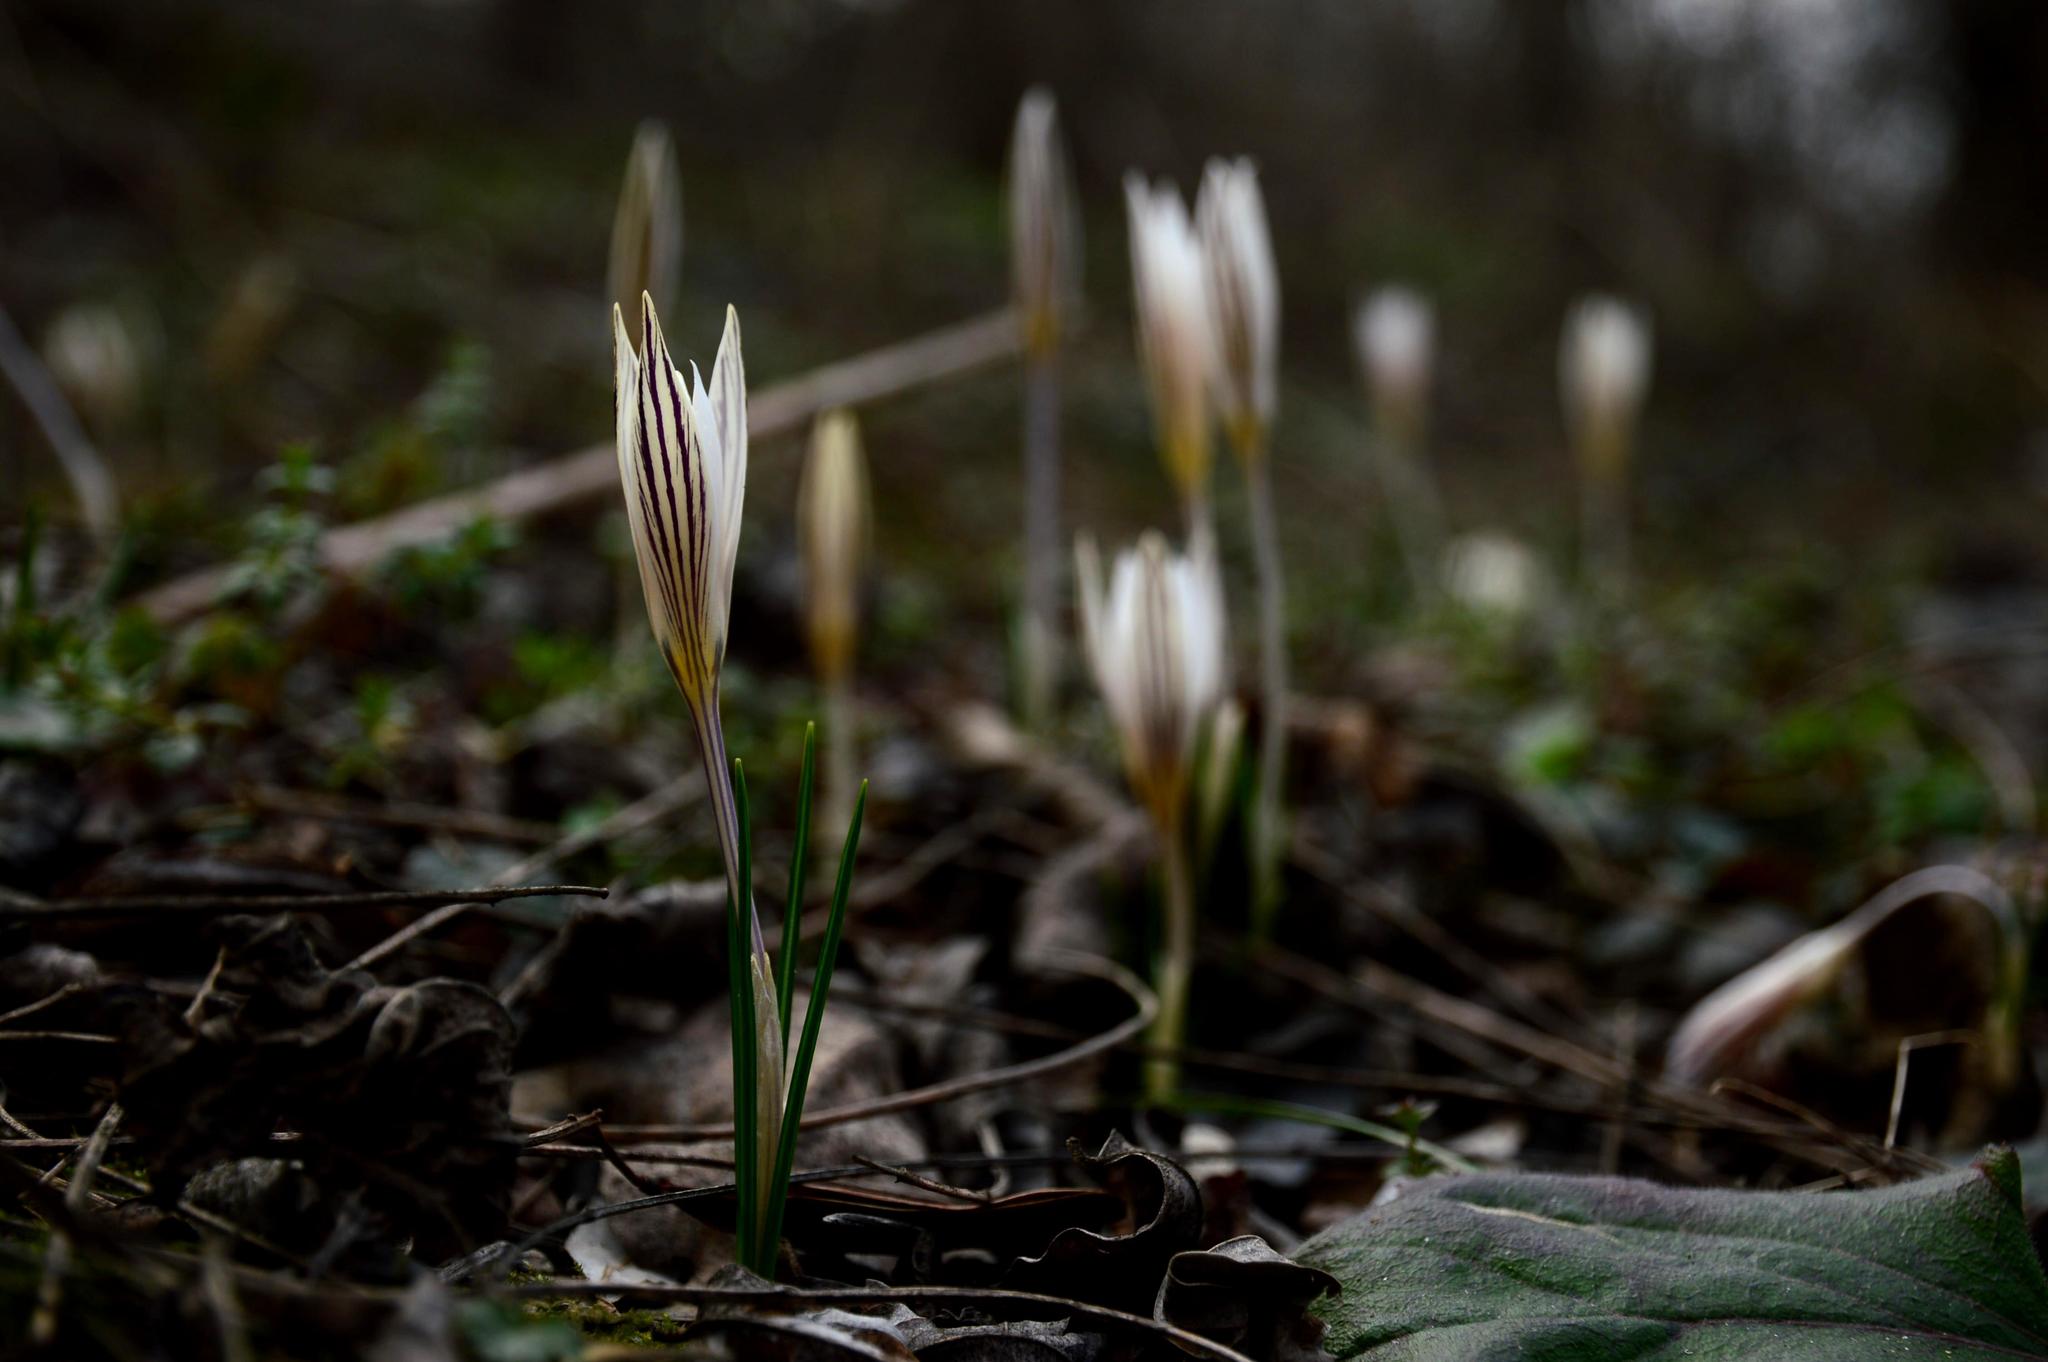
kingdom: Plantae
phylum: Tracheophyta
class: Liliopsida
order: Asparagales
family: Iridaceae
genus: Crocus
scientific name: Crocus reticulatus
